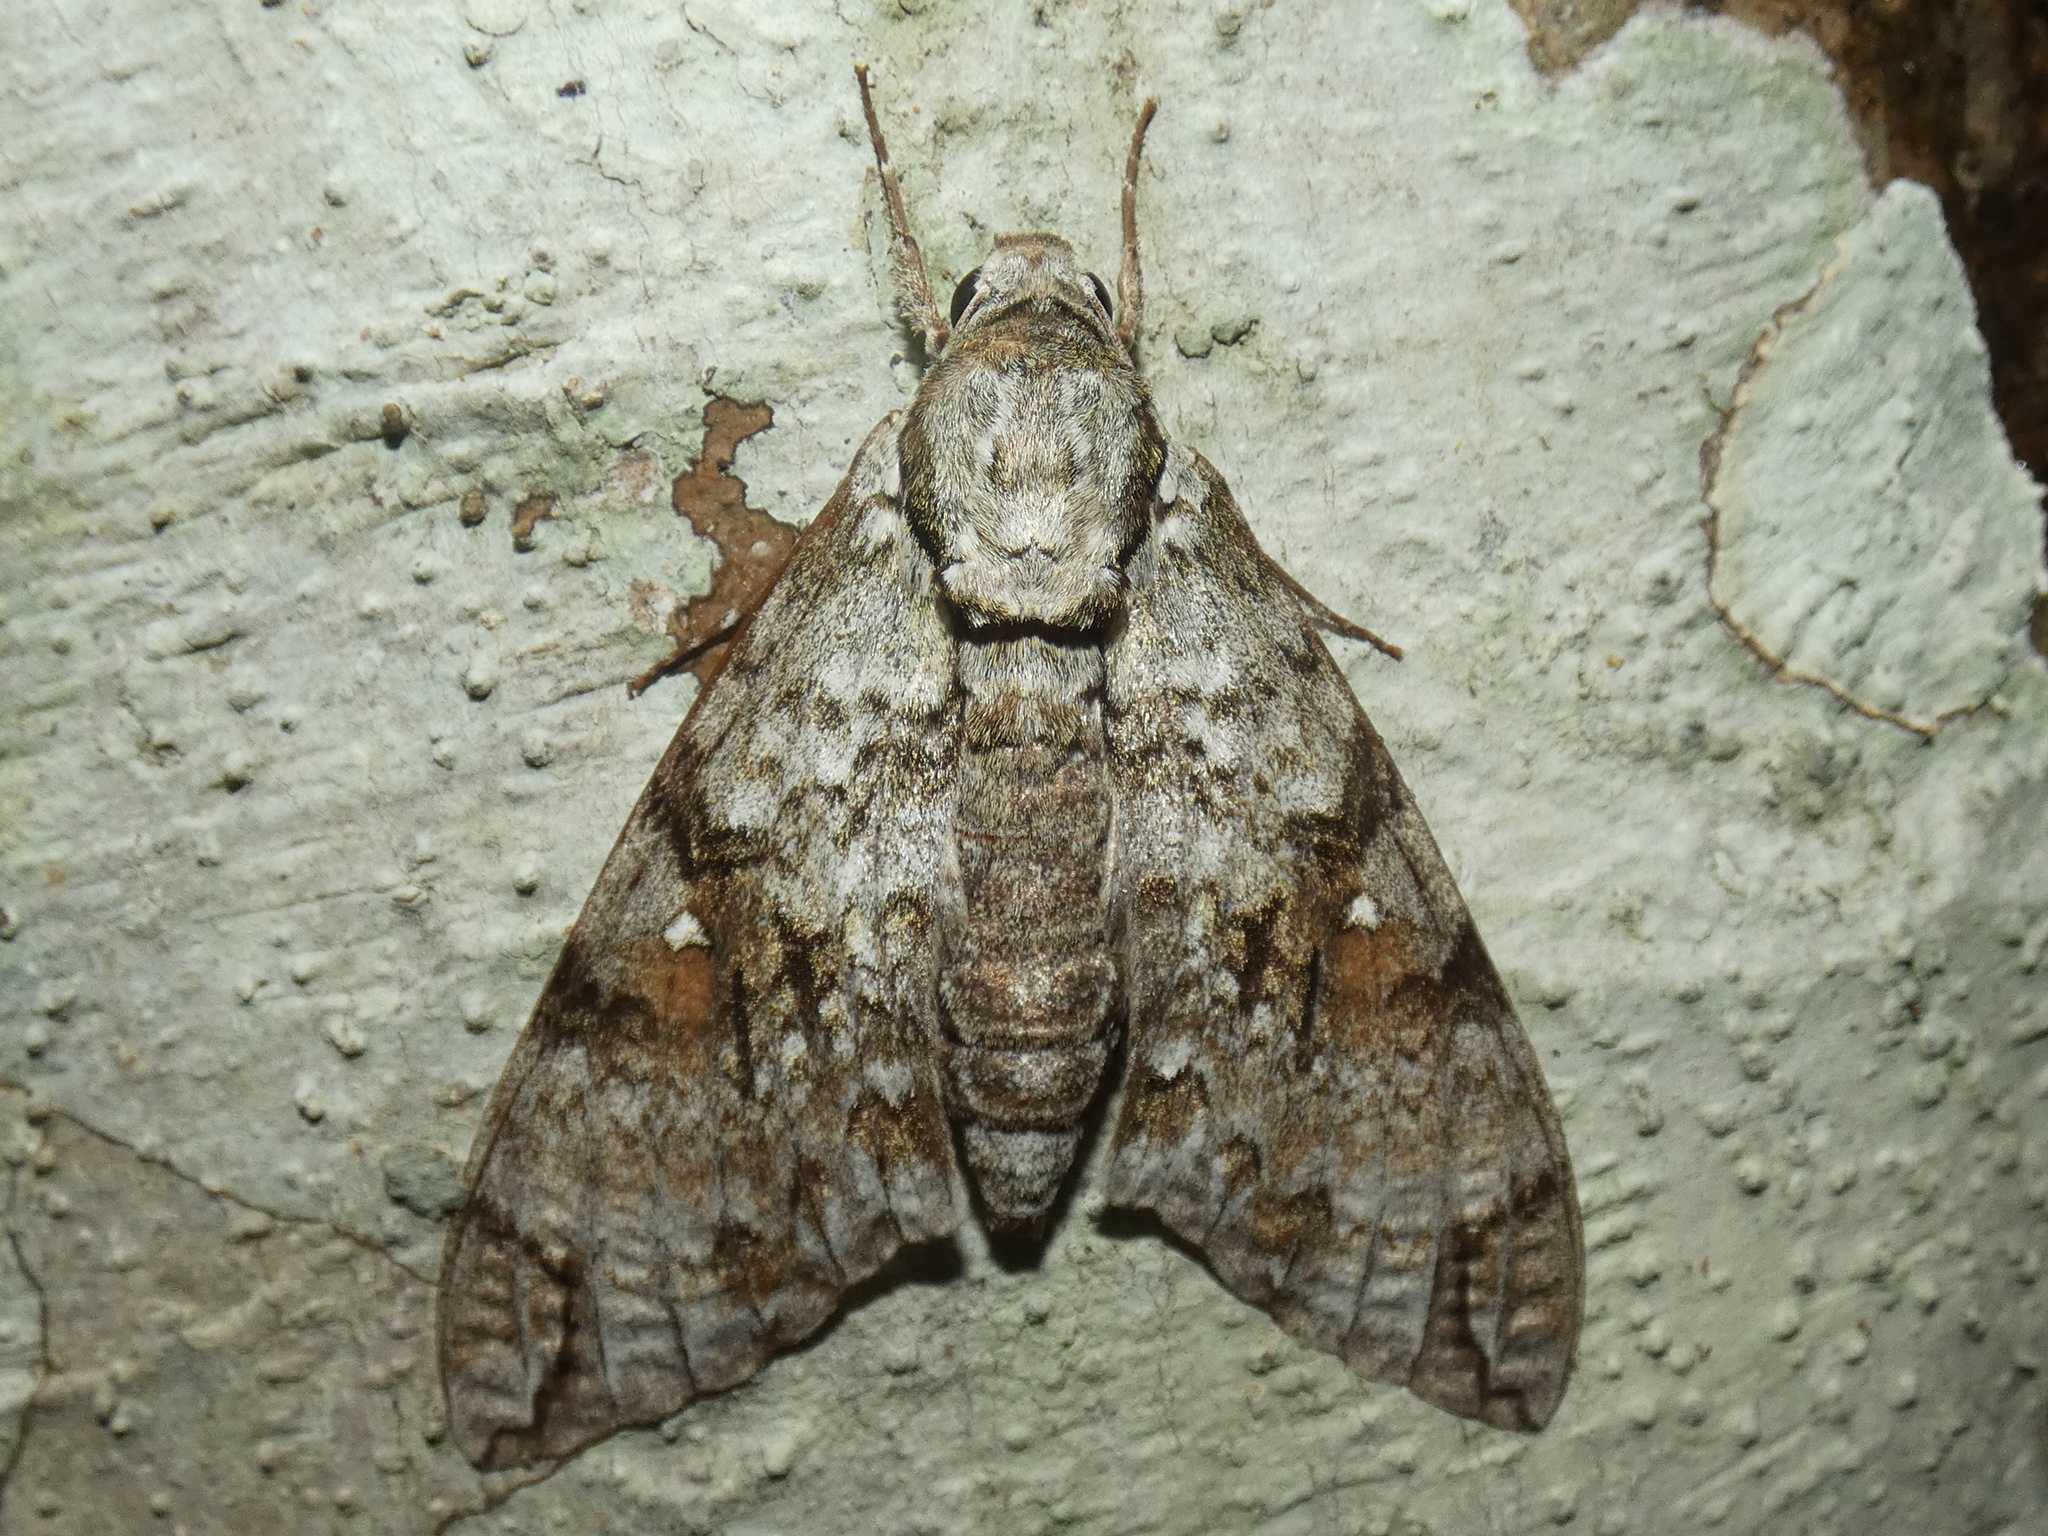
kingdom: Animalia
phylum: Arthropoda
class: Insecta
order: Lepidoptera
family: Sphingidae
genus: Manduca
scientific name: Manduca florestan
